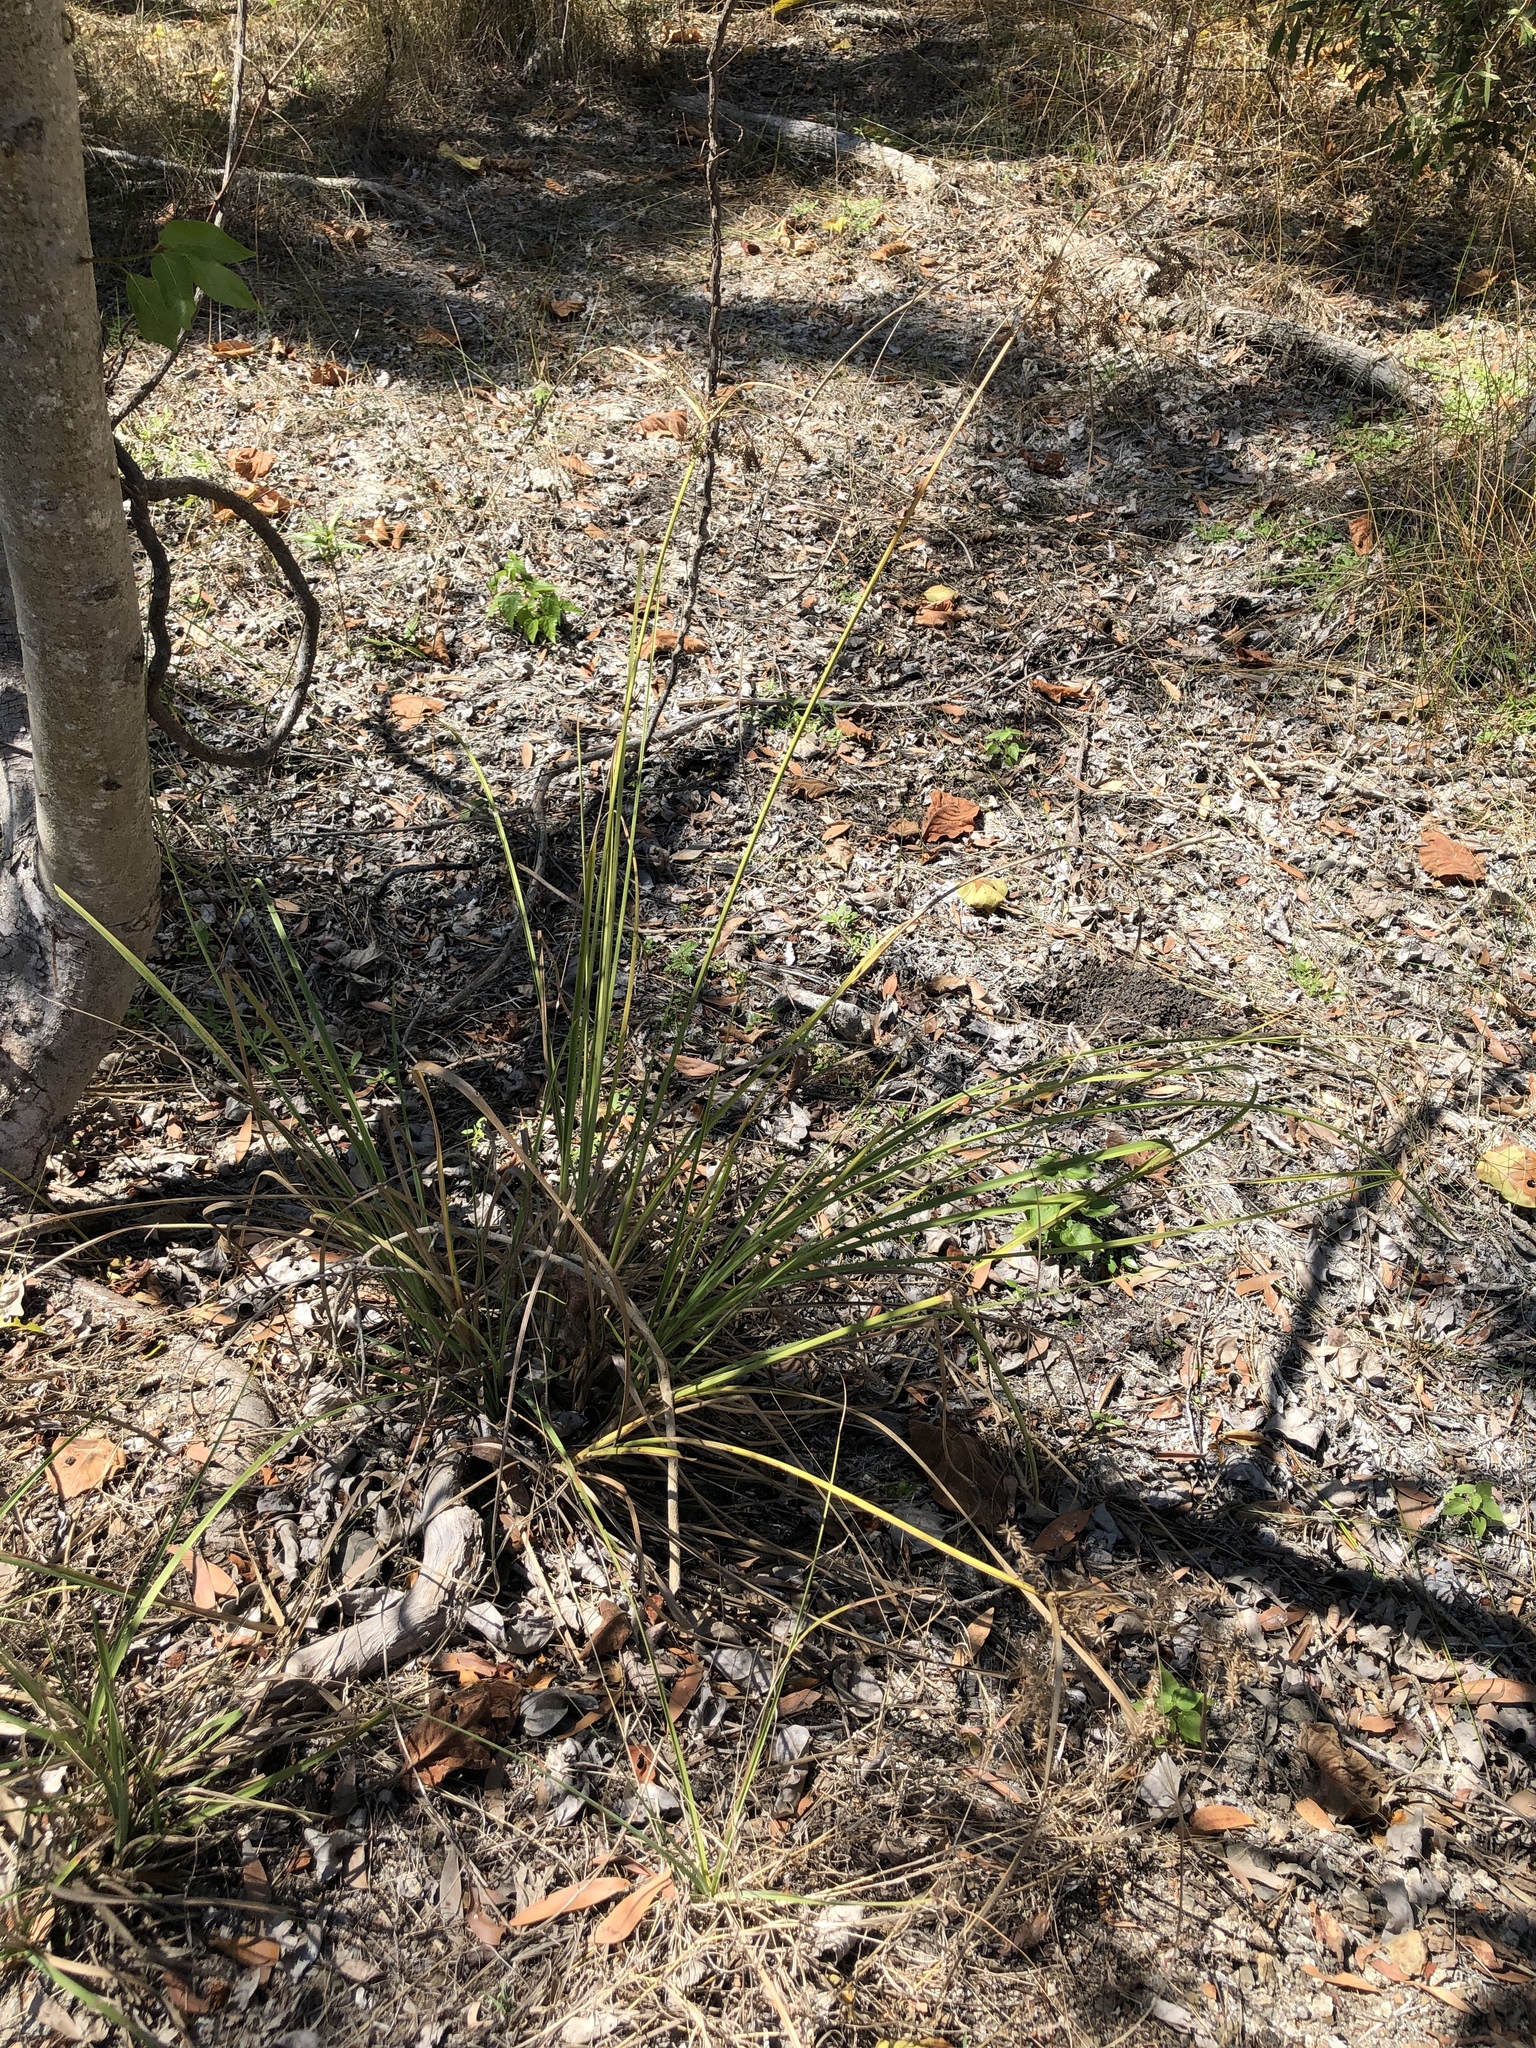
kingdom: Plantae
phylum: Tracheophyta
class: Liliopsida
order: Poales
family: Cyperaceae
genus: Cyperus
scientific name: Cyperus javanicus
